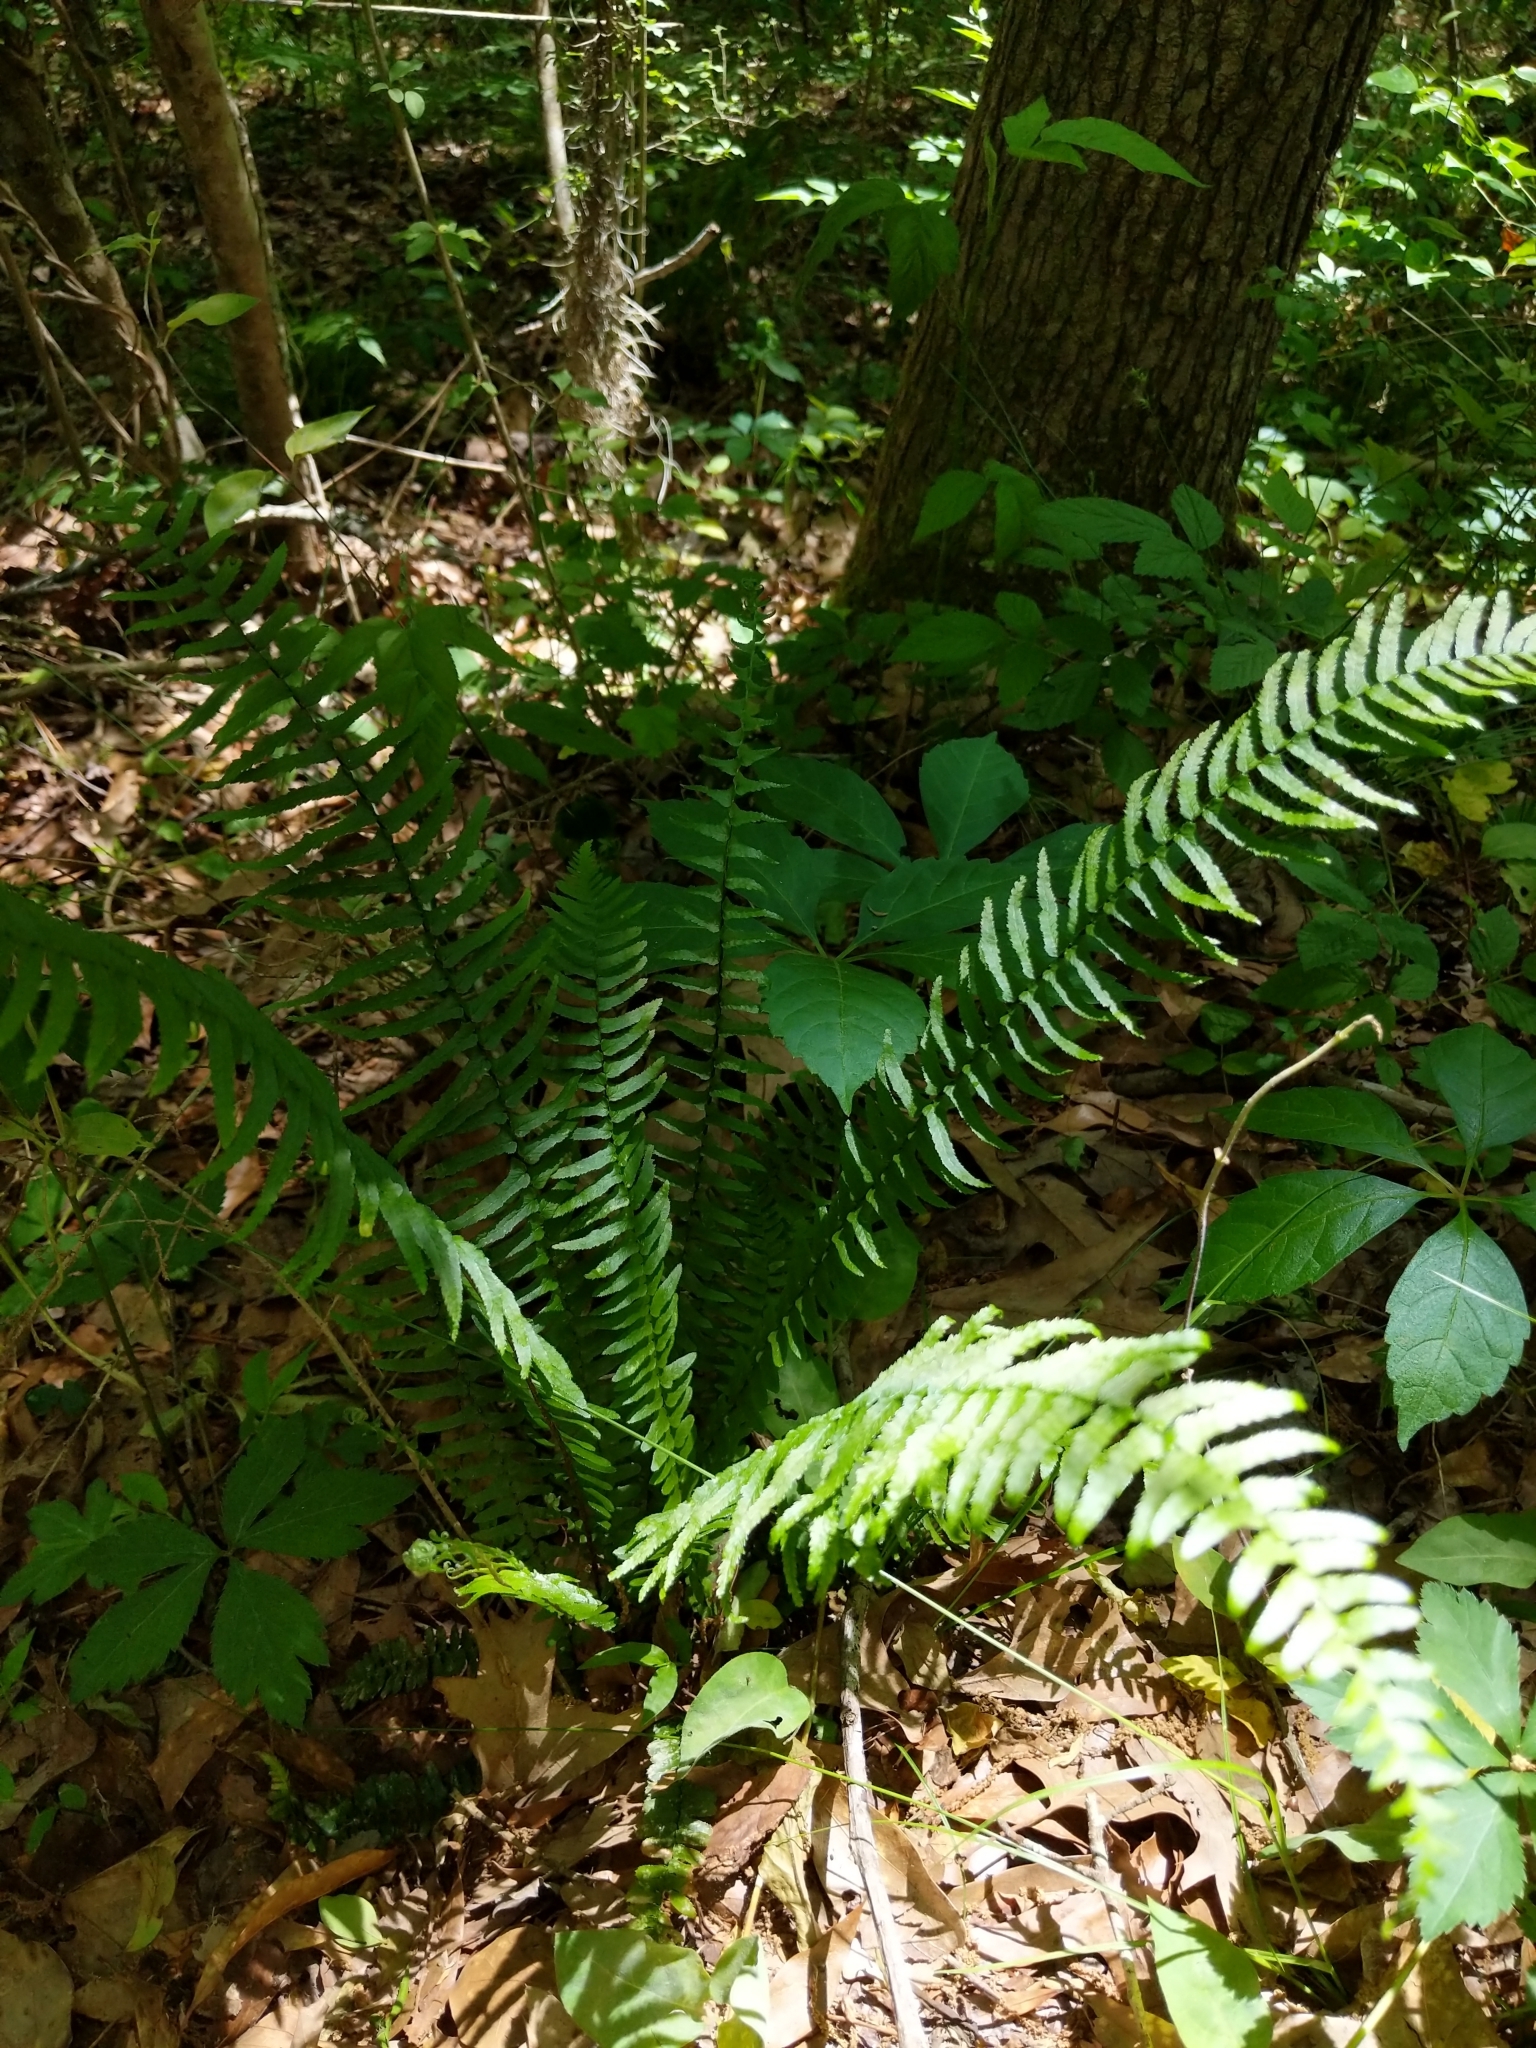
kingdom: Plantae
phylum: Tracheophyta
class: Polypodiopsida
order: Polypodiales
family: Aspleniaceae
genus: Asplenium
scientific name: Asplenium platyneuron
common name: Ebony spleenwort
